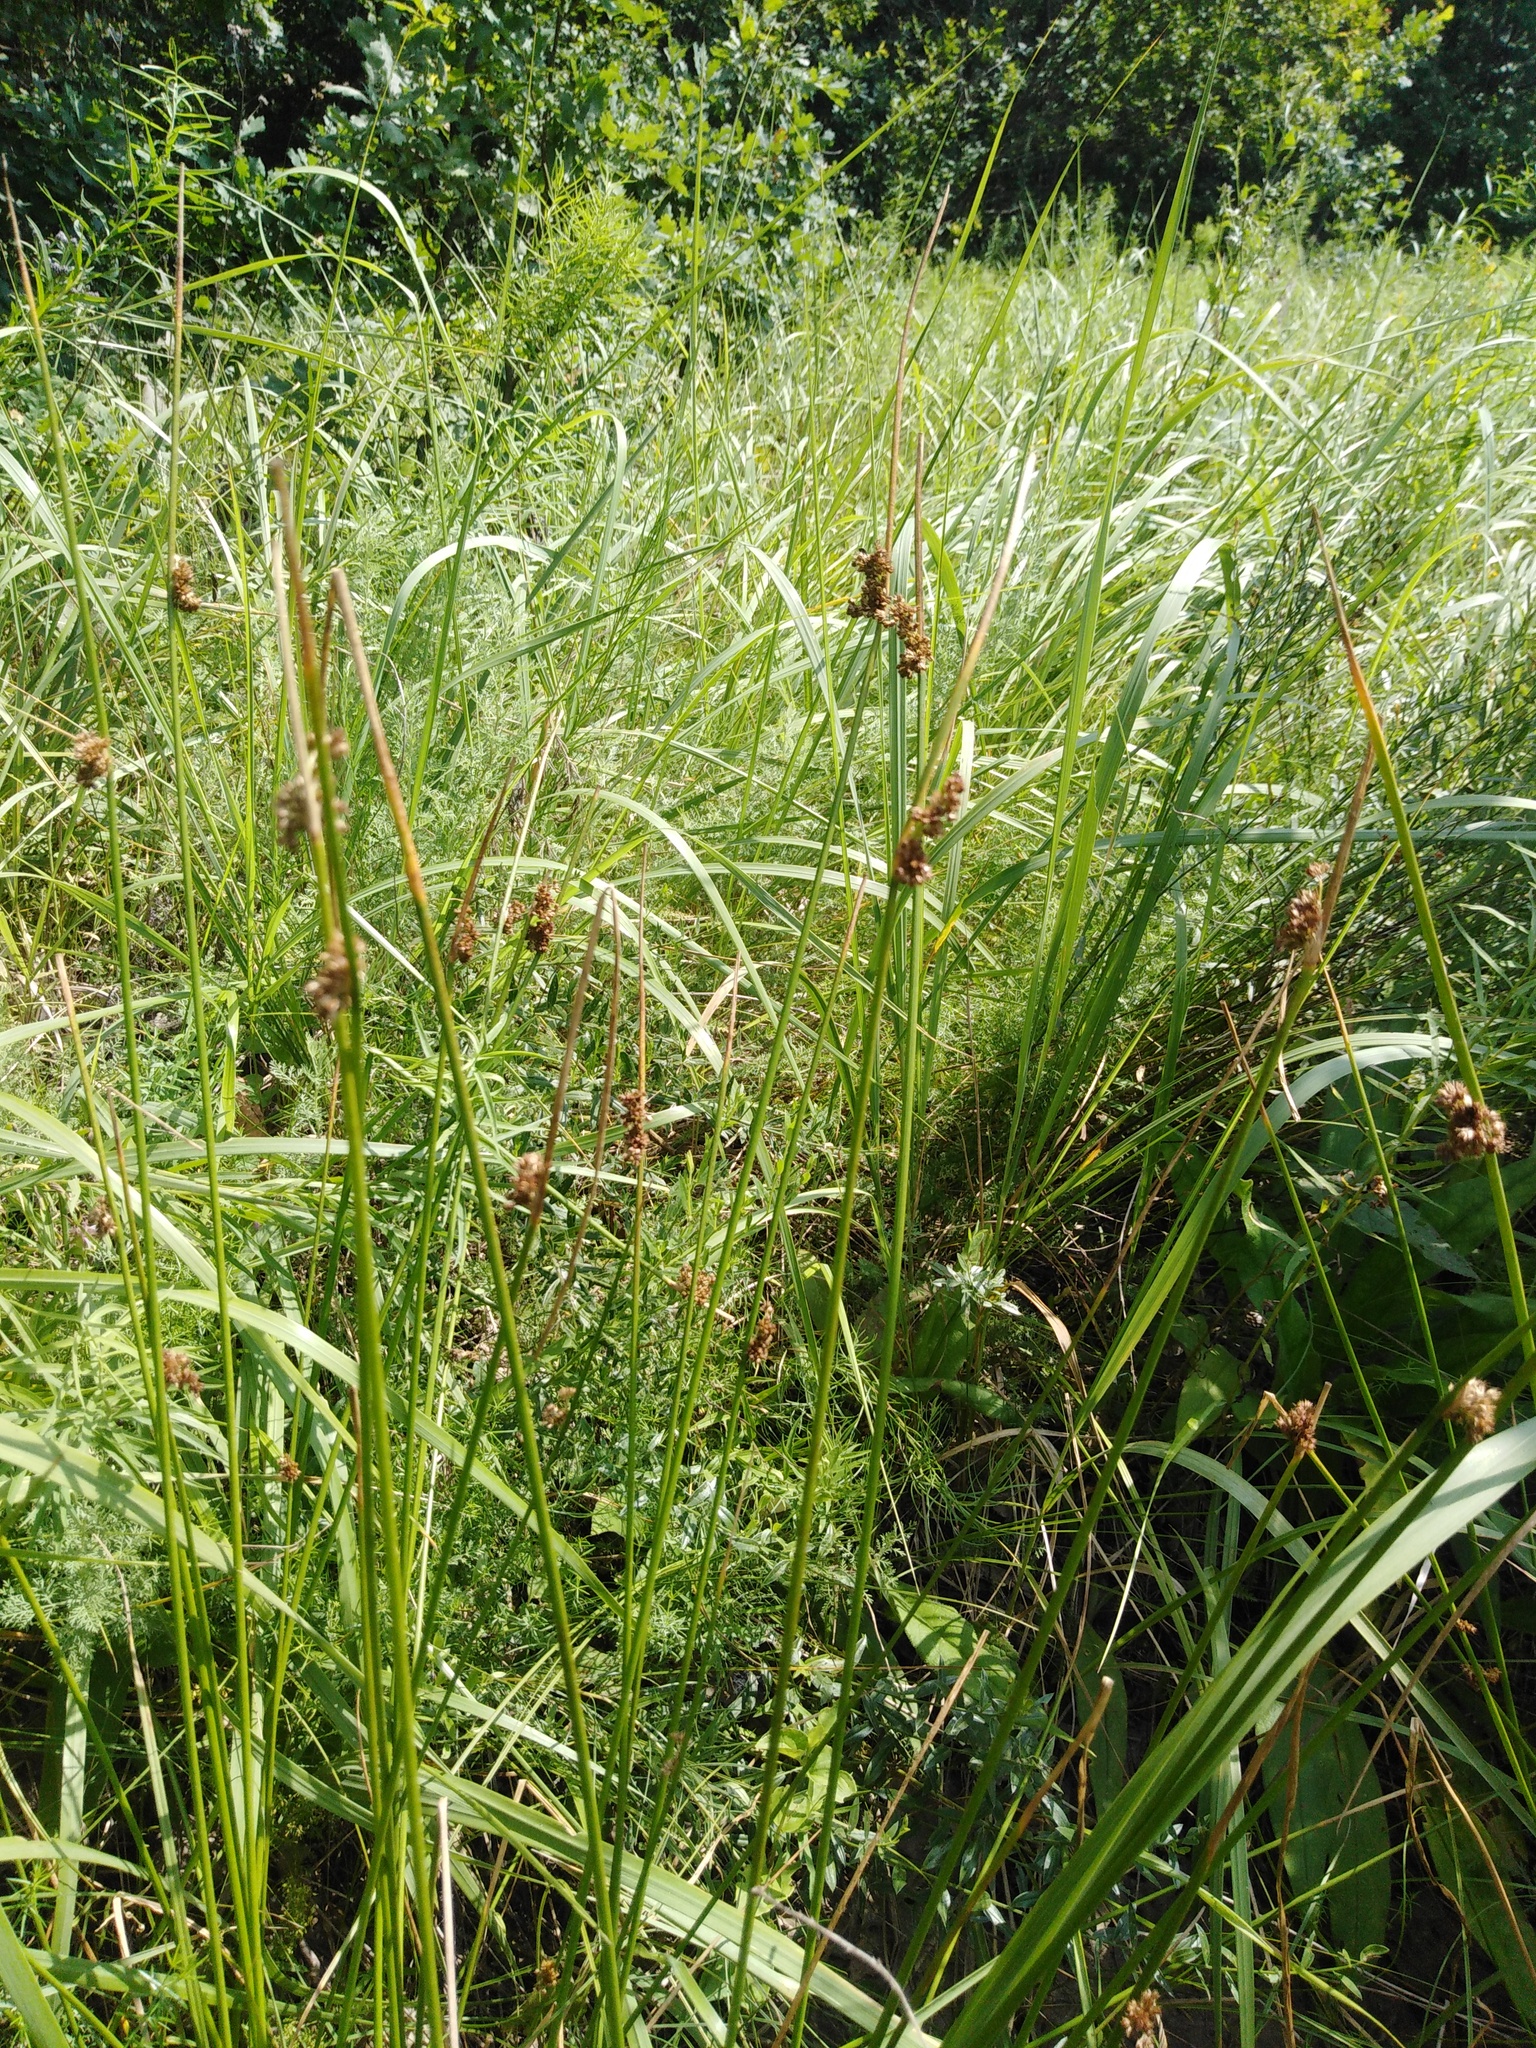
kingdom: Plantae
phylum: Tracheophyta
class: Liliopsida
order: Poales
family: Juncaceae
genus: Juncus
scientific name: Juncus effusus
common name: Soft rush
